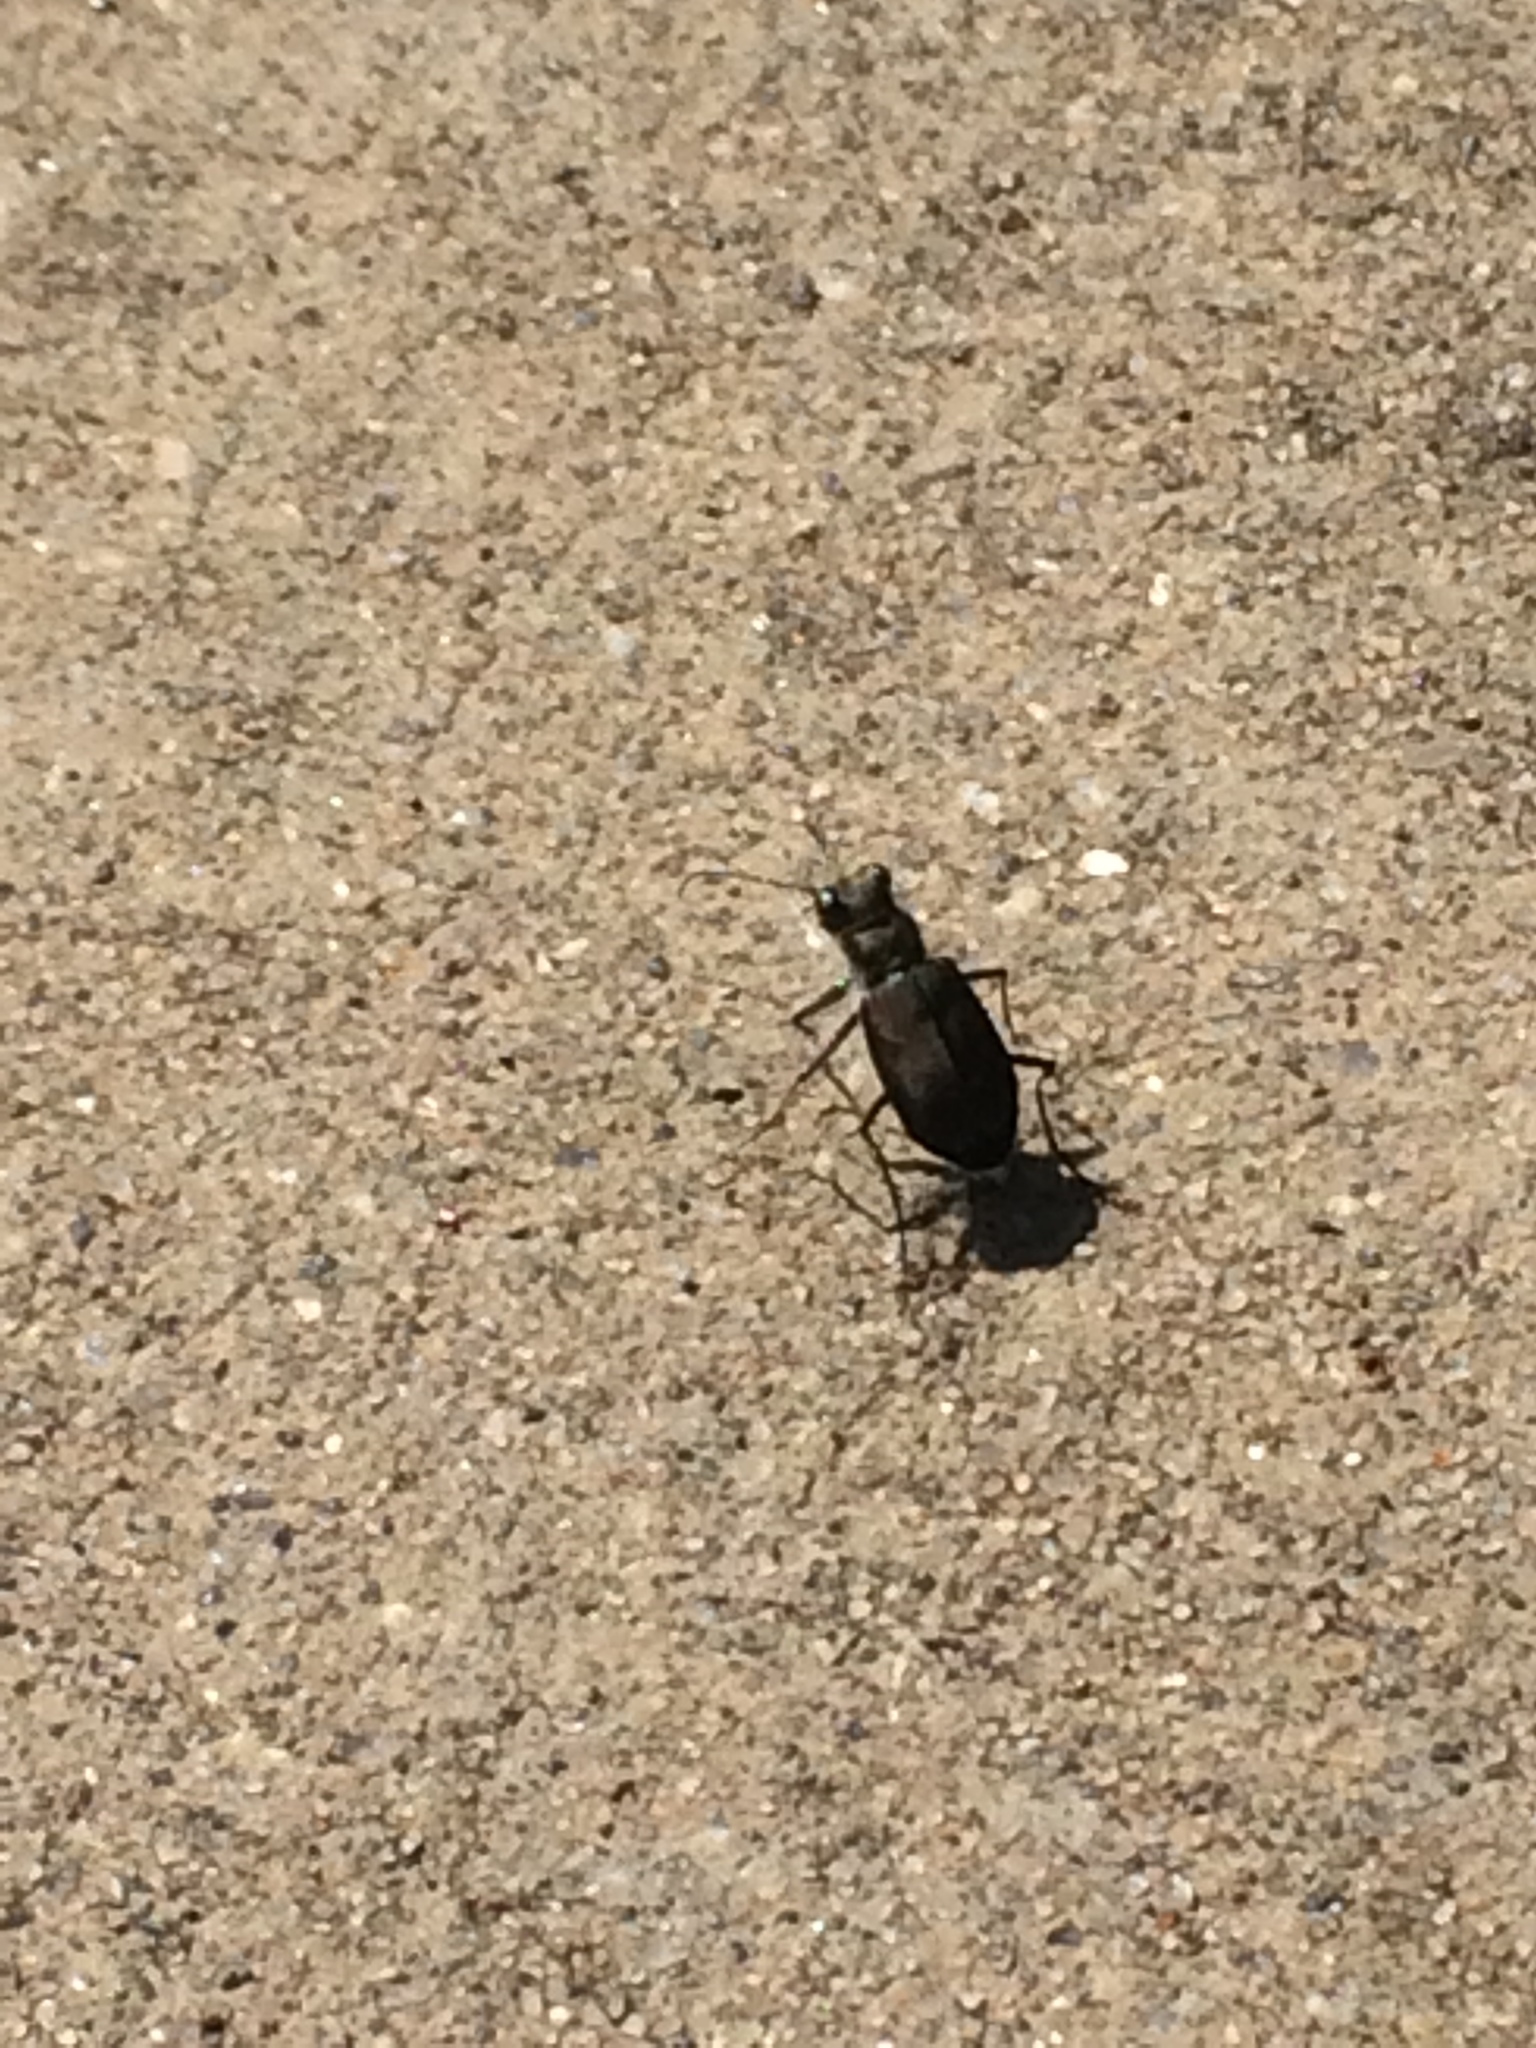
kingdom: Animalia
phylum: Arthropoda
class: Insecta
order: Coleoptera
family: Carabidae
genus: Cicindela
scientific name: Cicindela tranquebarica
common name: Oblique-lined tiger beetle
